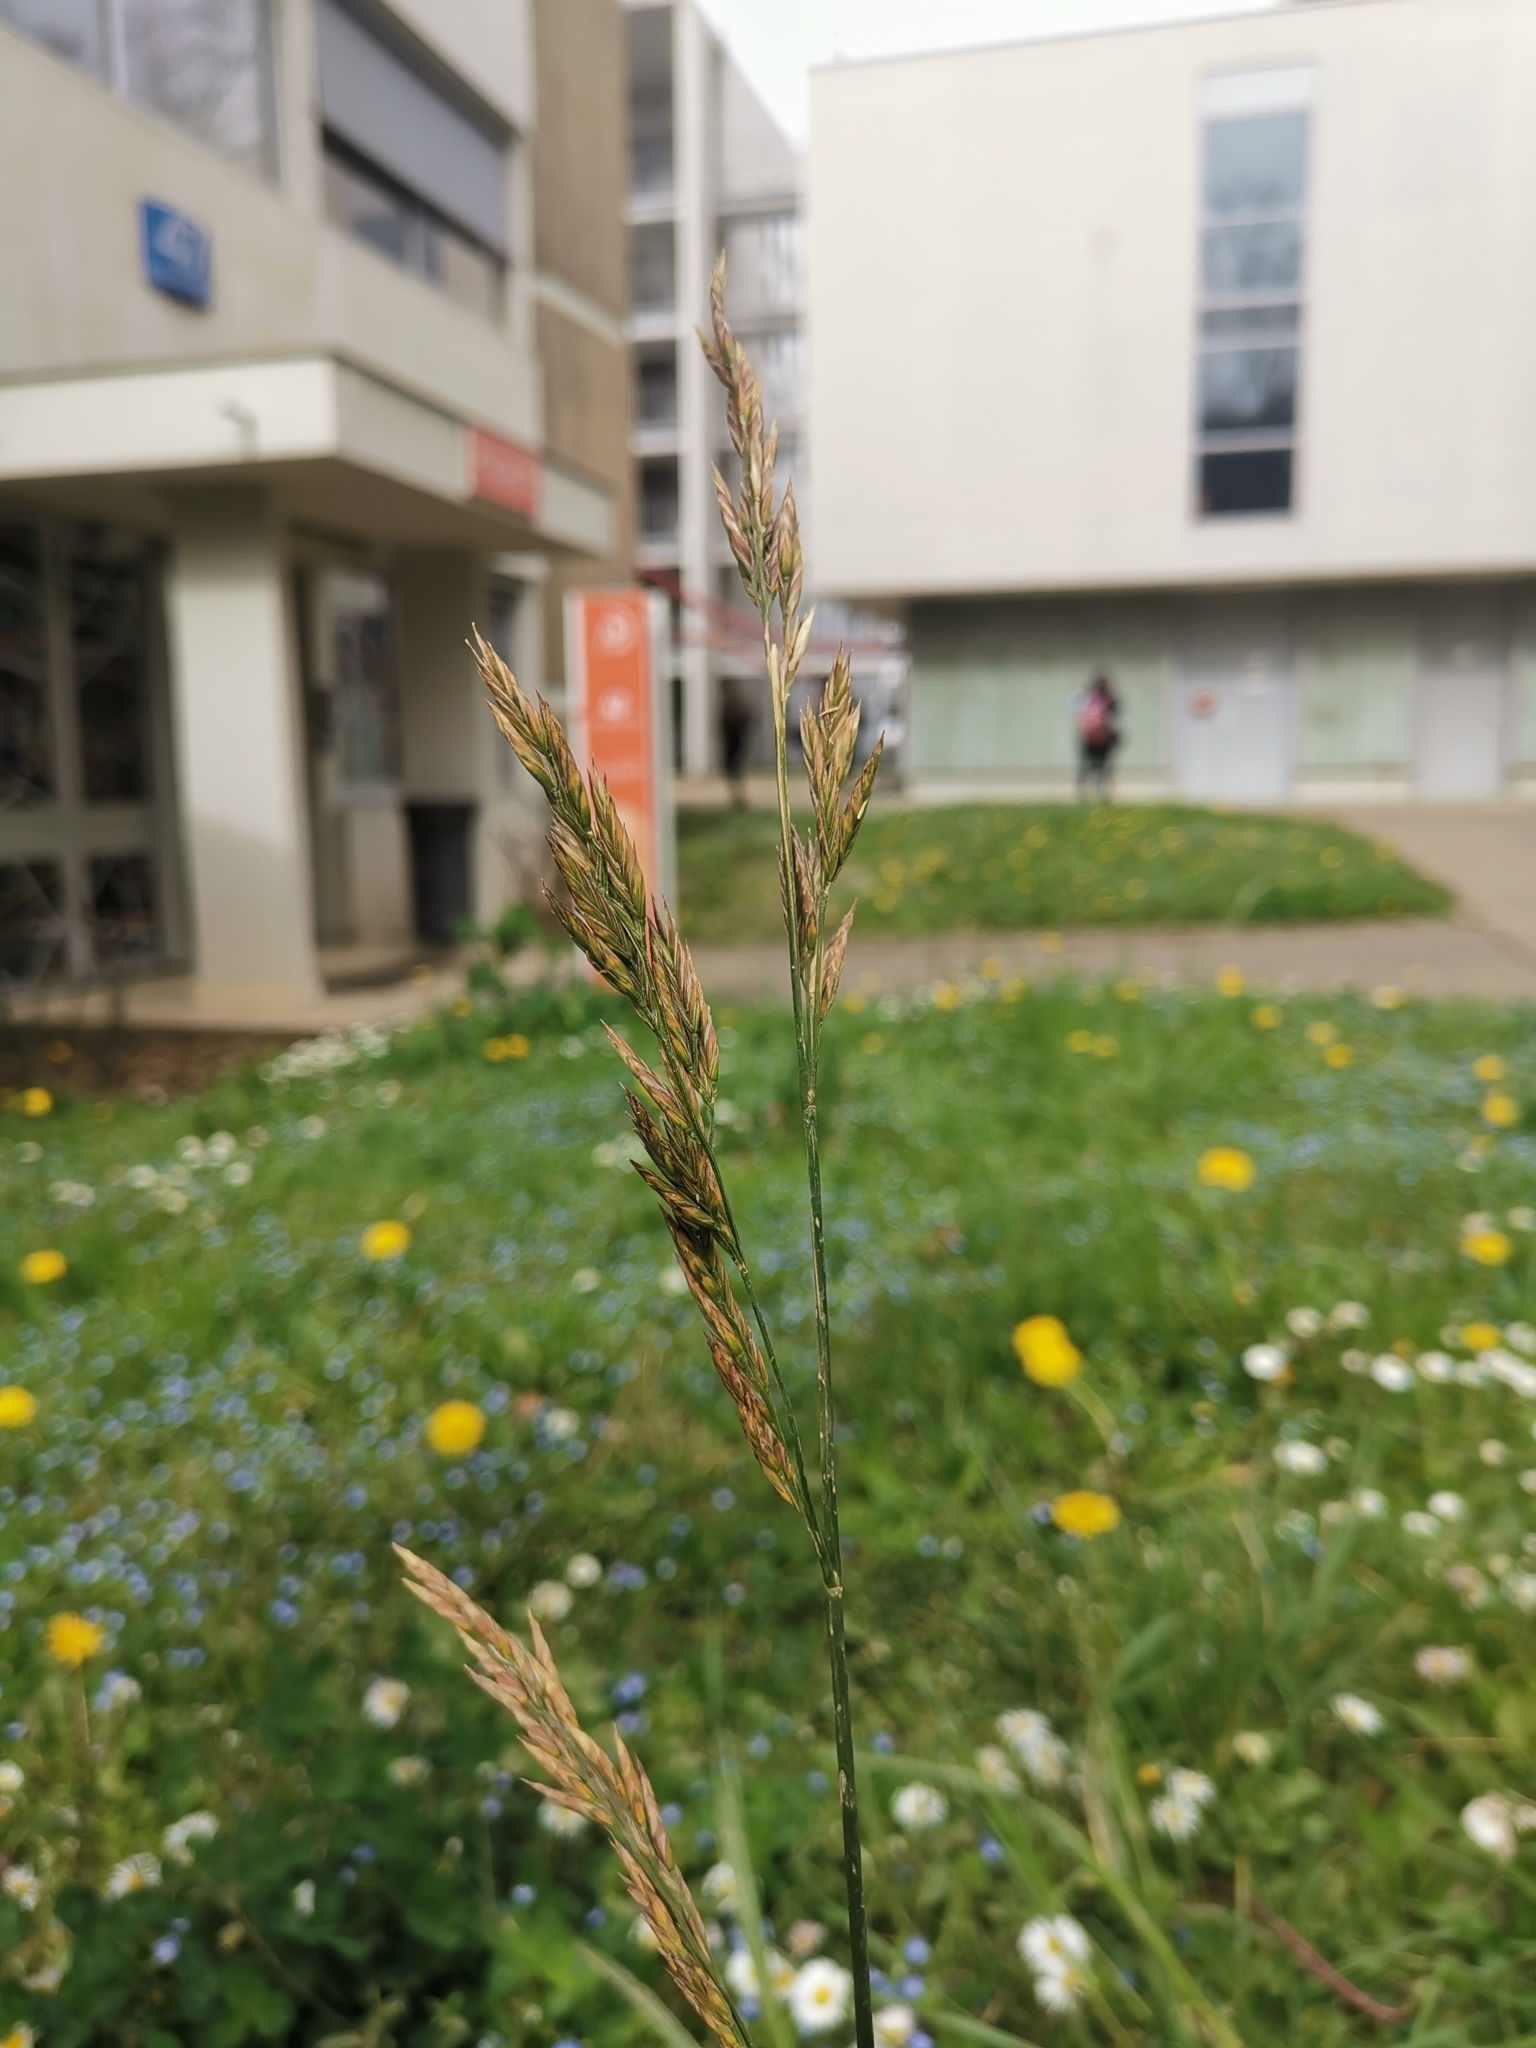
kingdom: Plantae
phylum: Tracheophyta
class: Liliopsida
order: Poales
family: Poaceae
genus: Lolium
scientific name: Lolium pratense
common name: Dover grass
